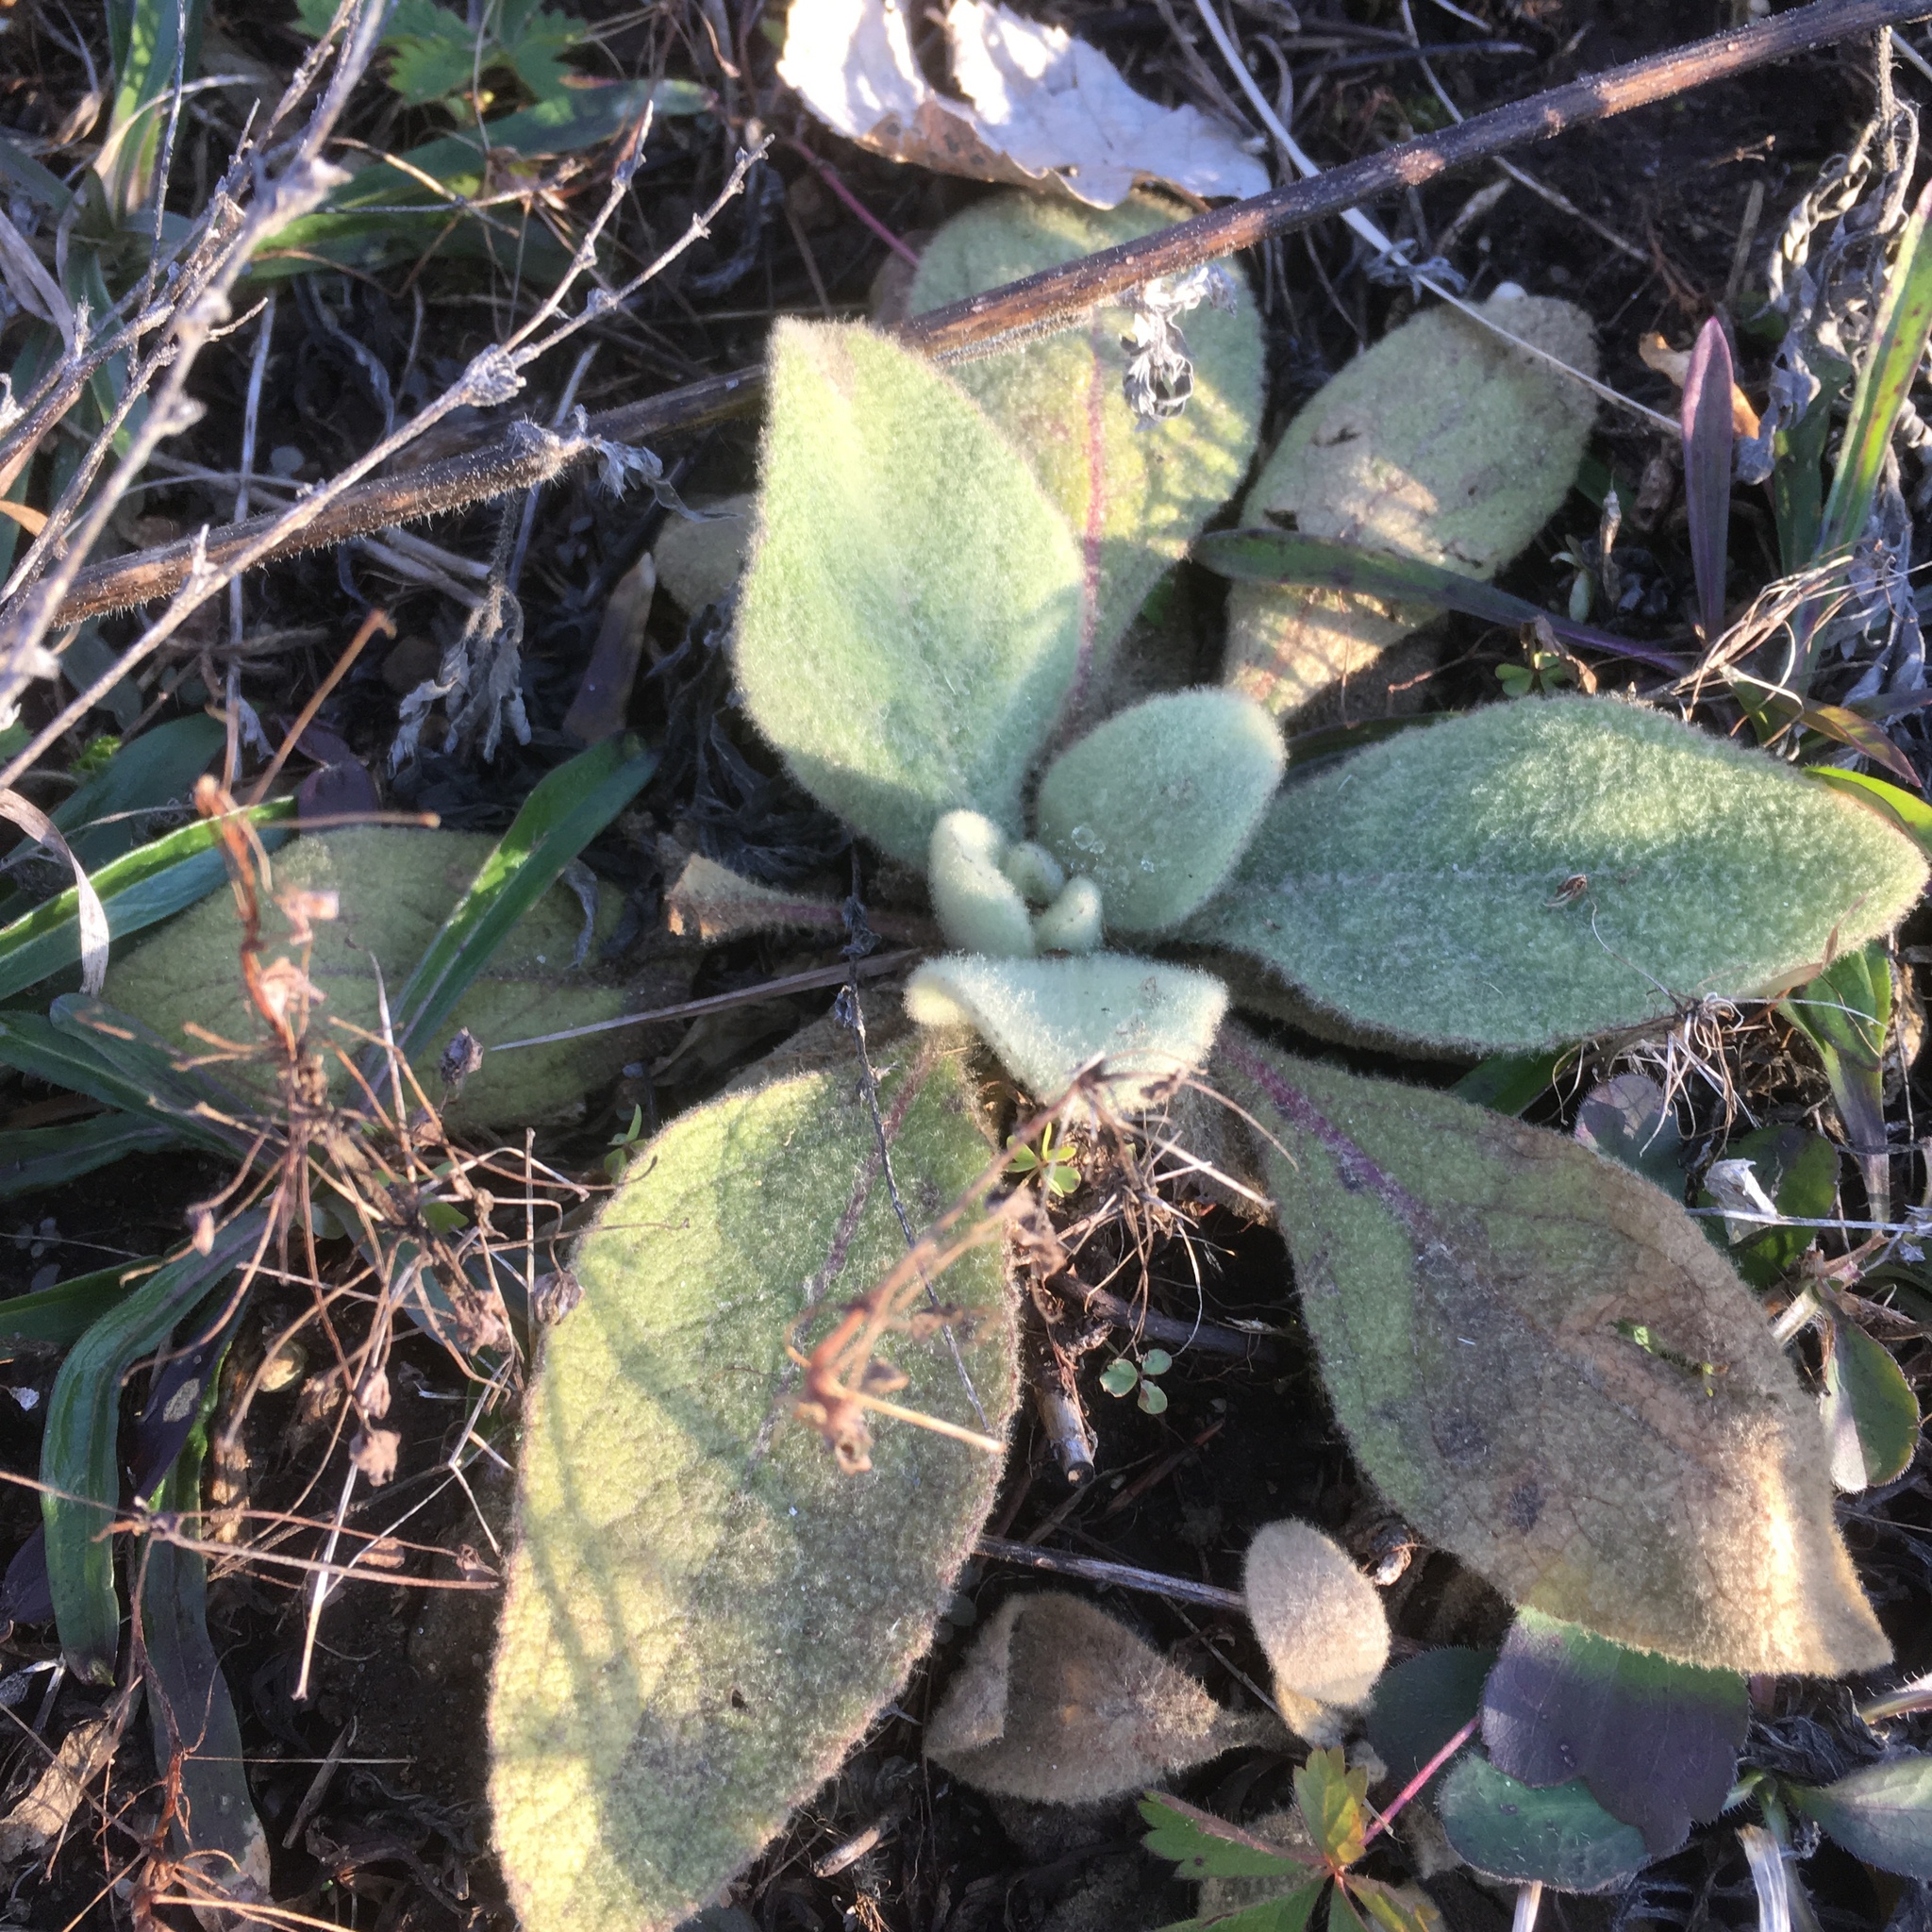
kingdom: Plantae
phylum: Tracheophyta
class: Magnoliopsida
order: Lamiales
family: Scrophulariaceae
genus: Verbascum
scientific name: Verbascum thapsus
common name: Common mullein
